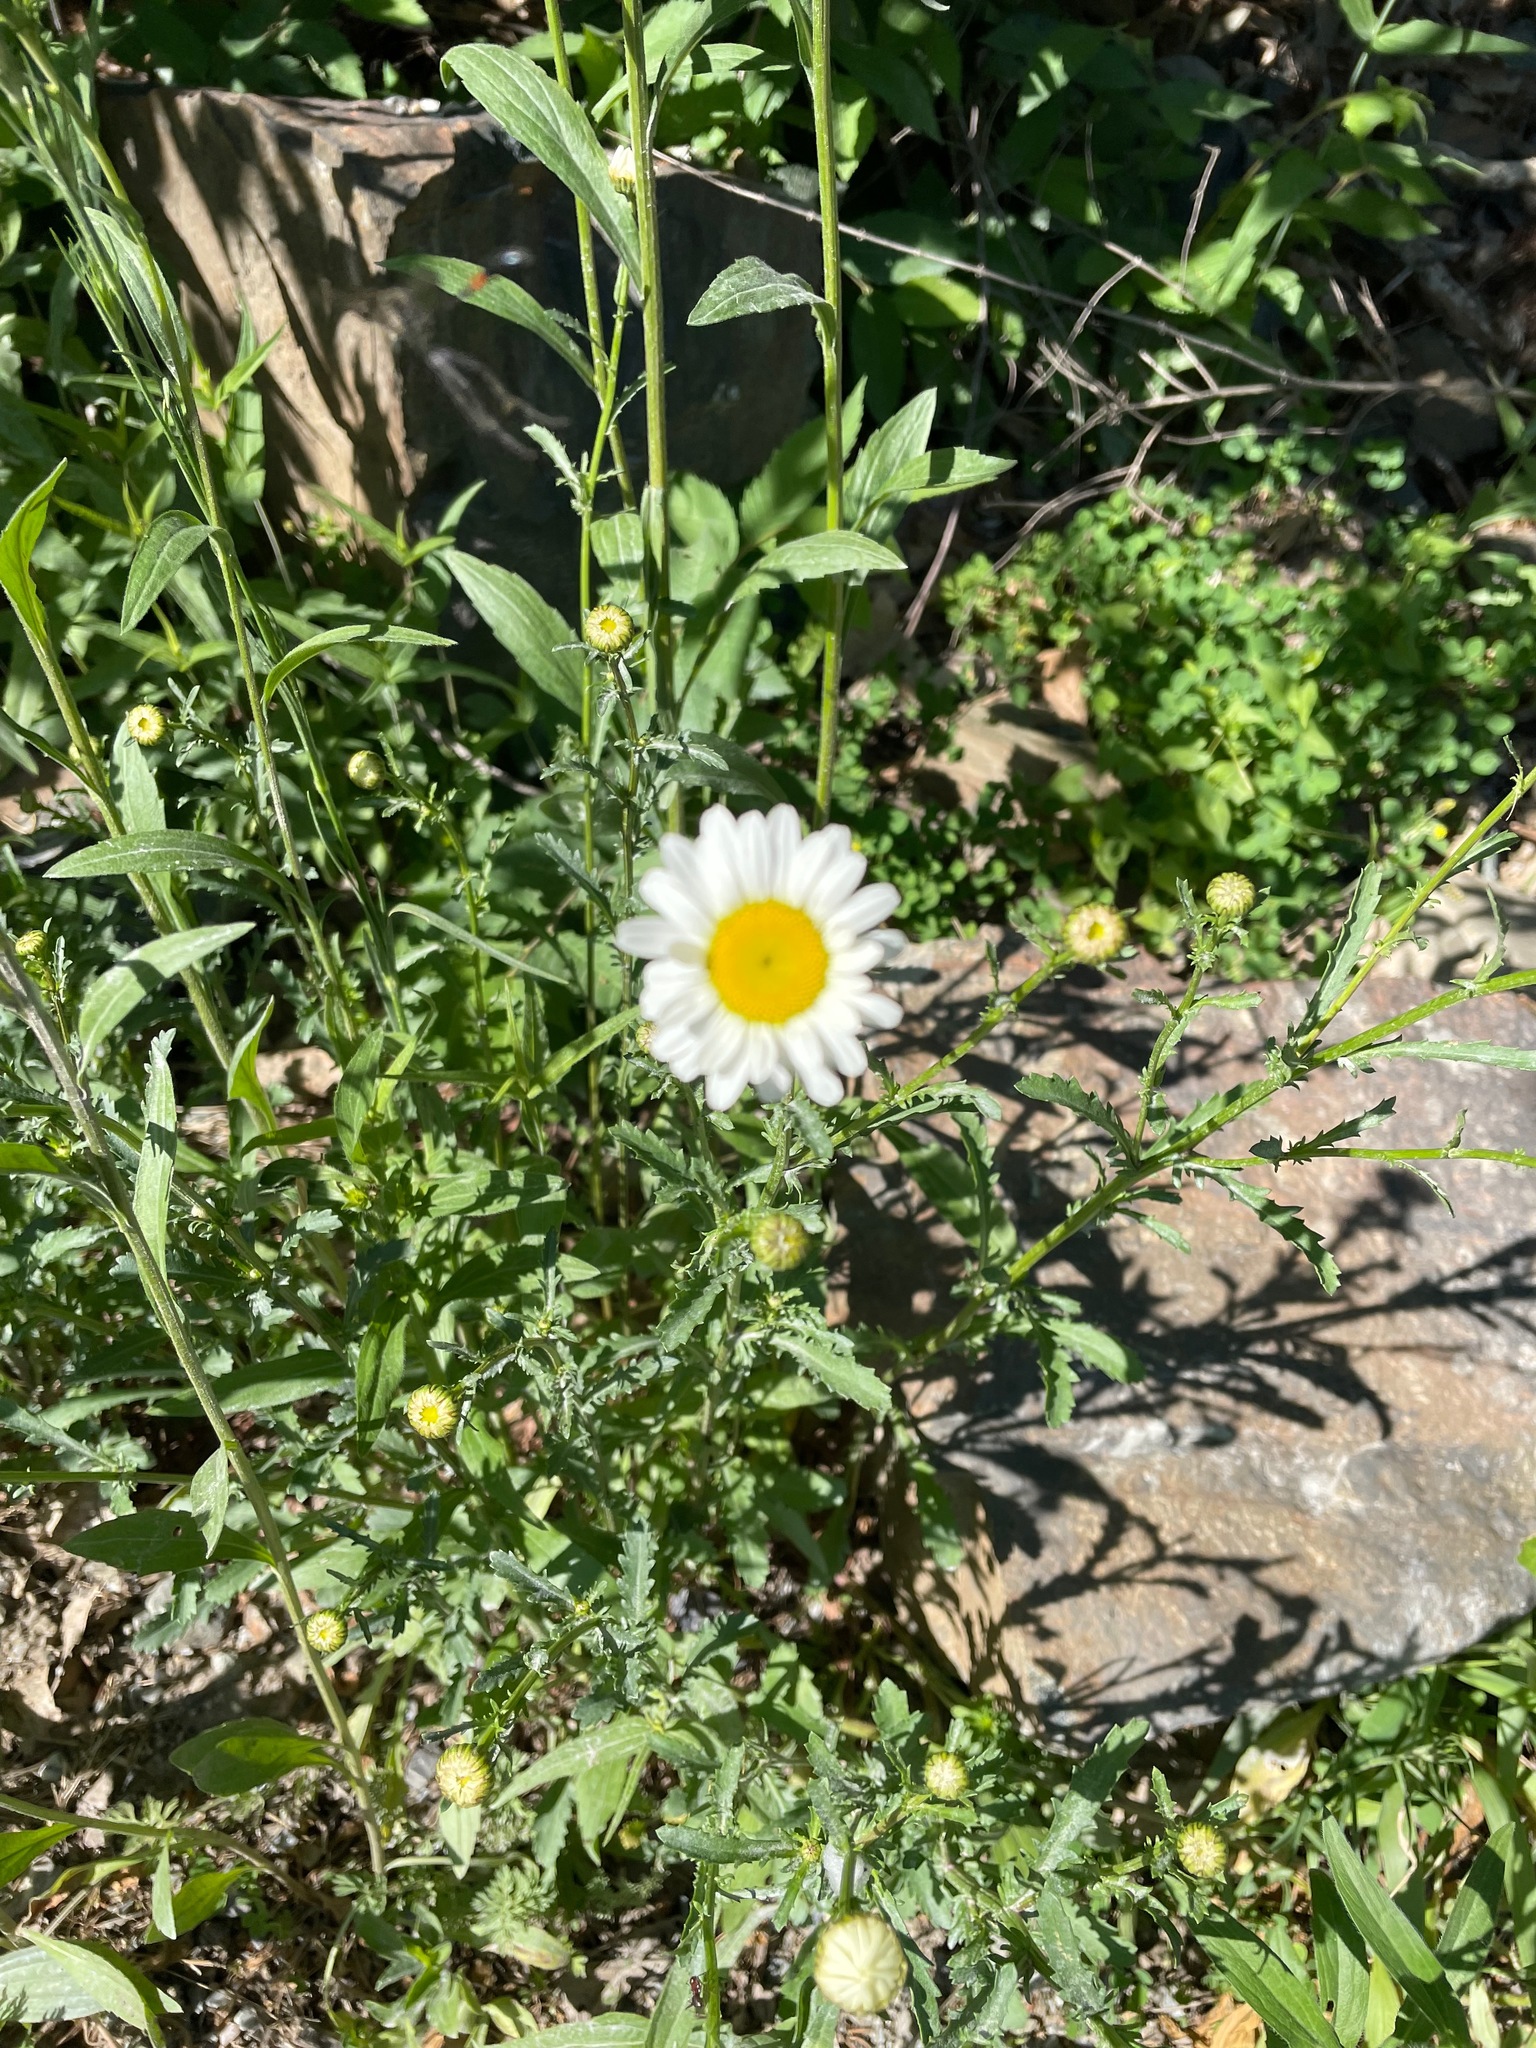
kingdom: Plantae
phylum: Tracheophyta
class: Magnoliopsida
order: Asterales
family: Asteraceae
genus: Leucanthemum
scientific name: Leucanthemum vulgare
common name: Oxeye daisy
